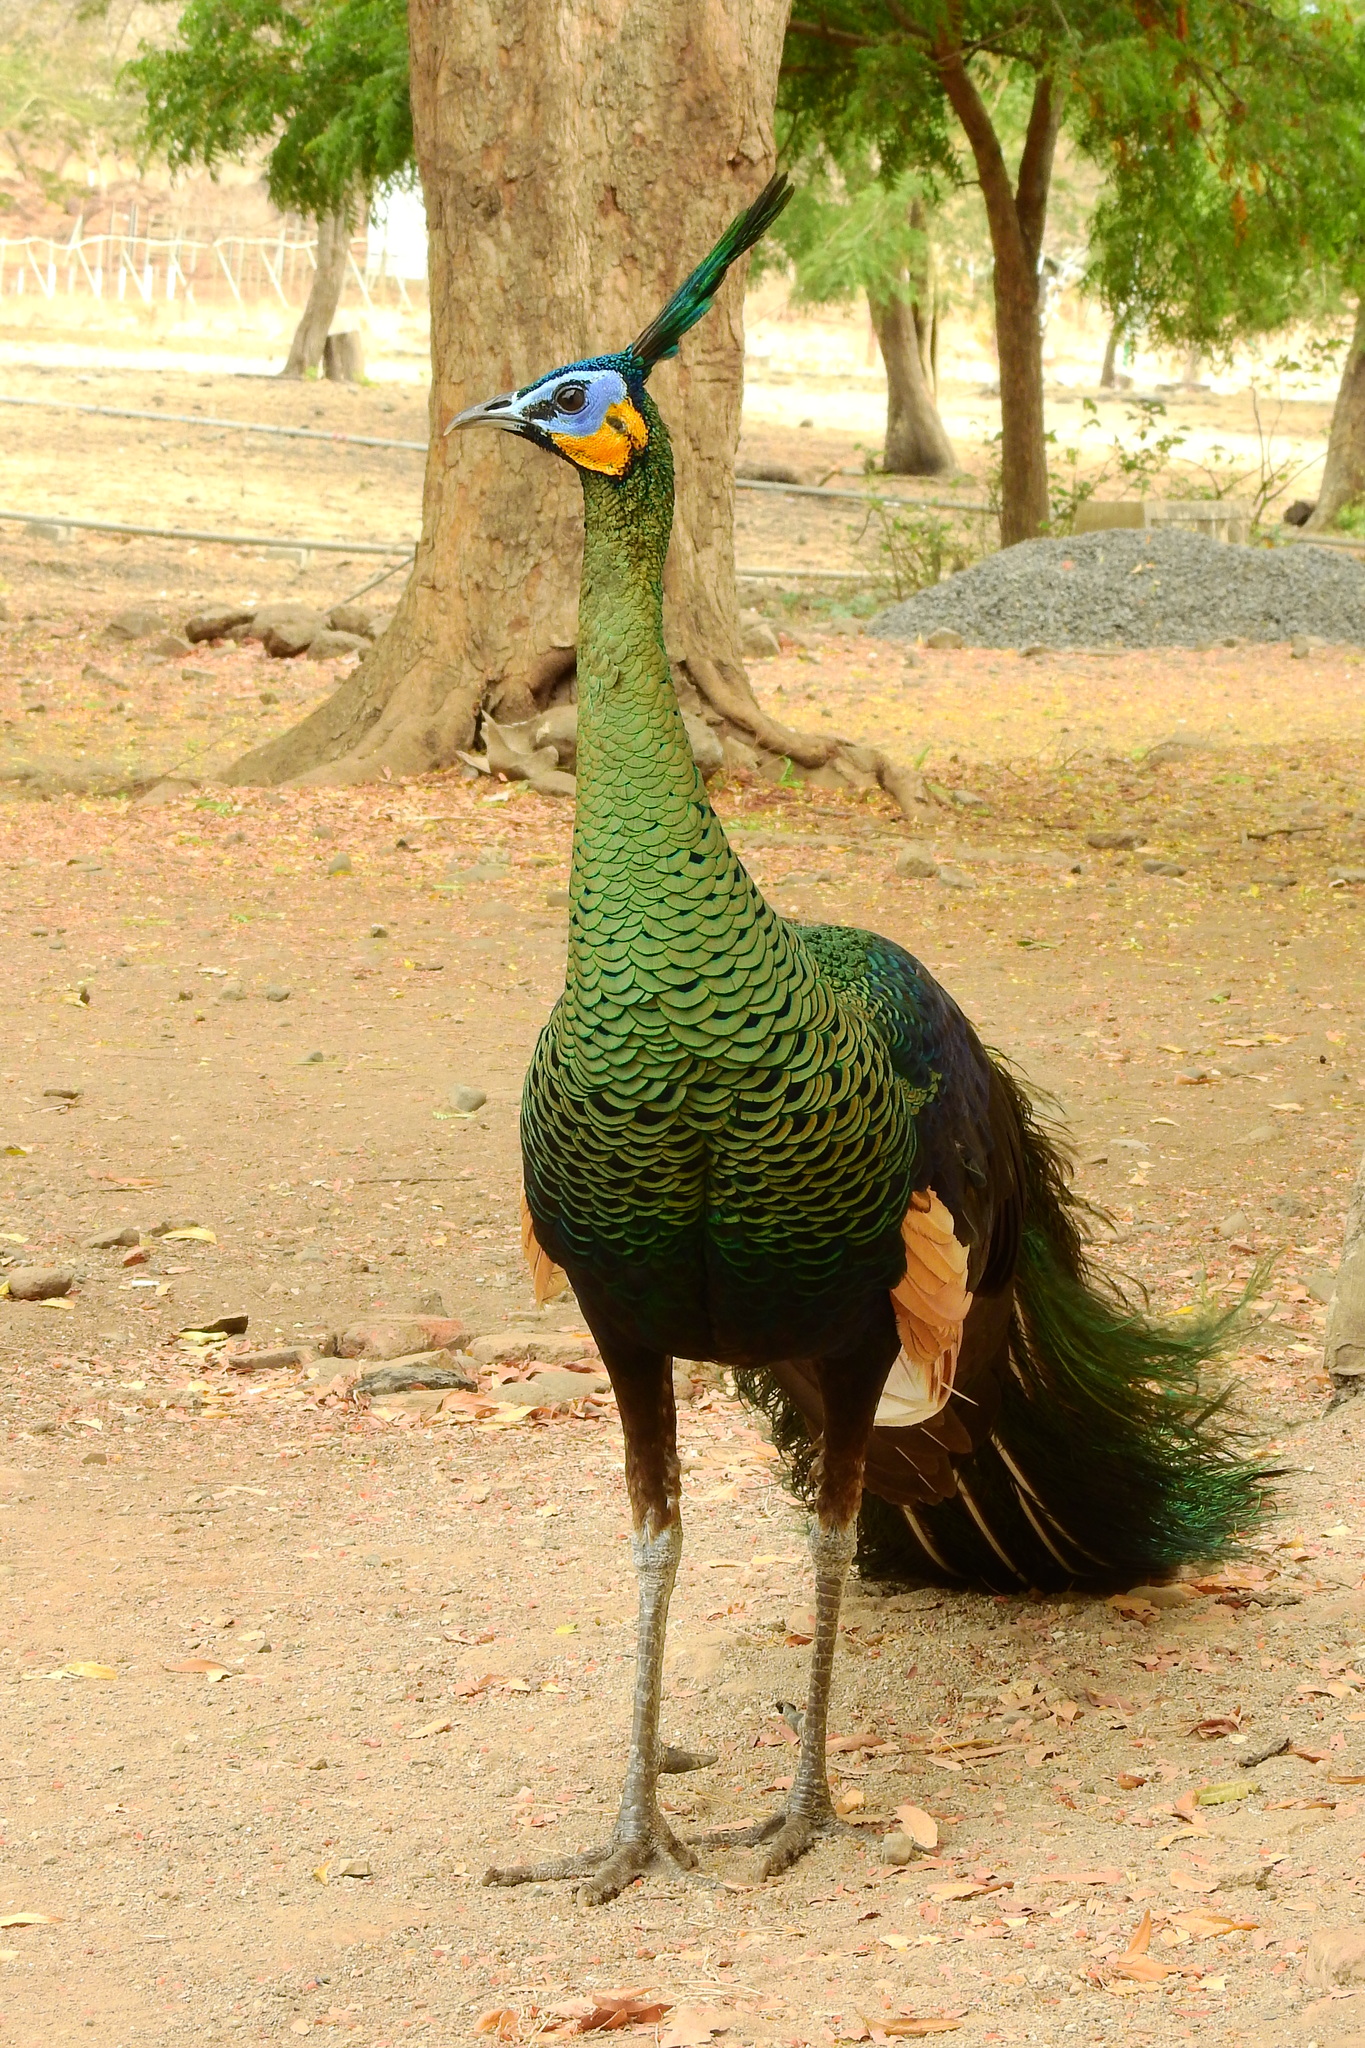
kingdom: Animalia
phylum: Chordata
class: Aves
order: Galliformes
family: Phasianidae
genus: Pavo
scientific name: Pavo muticus
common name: Green peafowl
